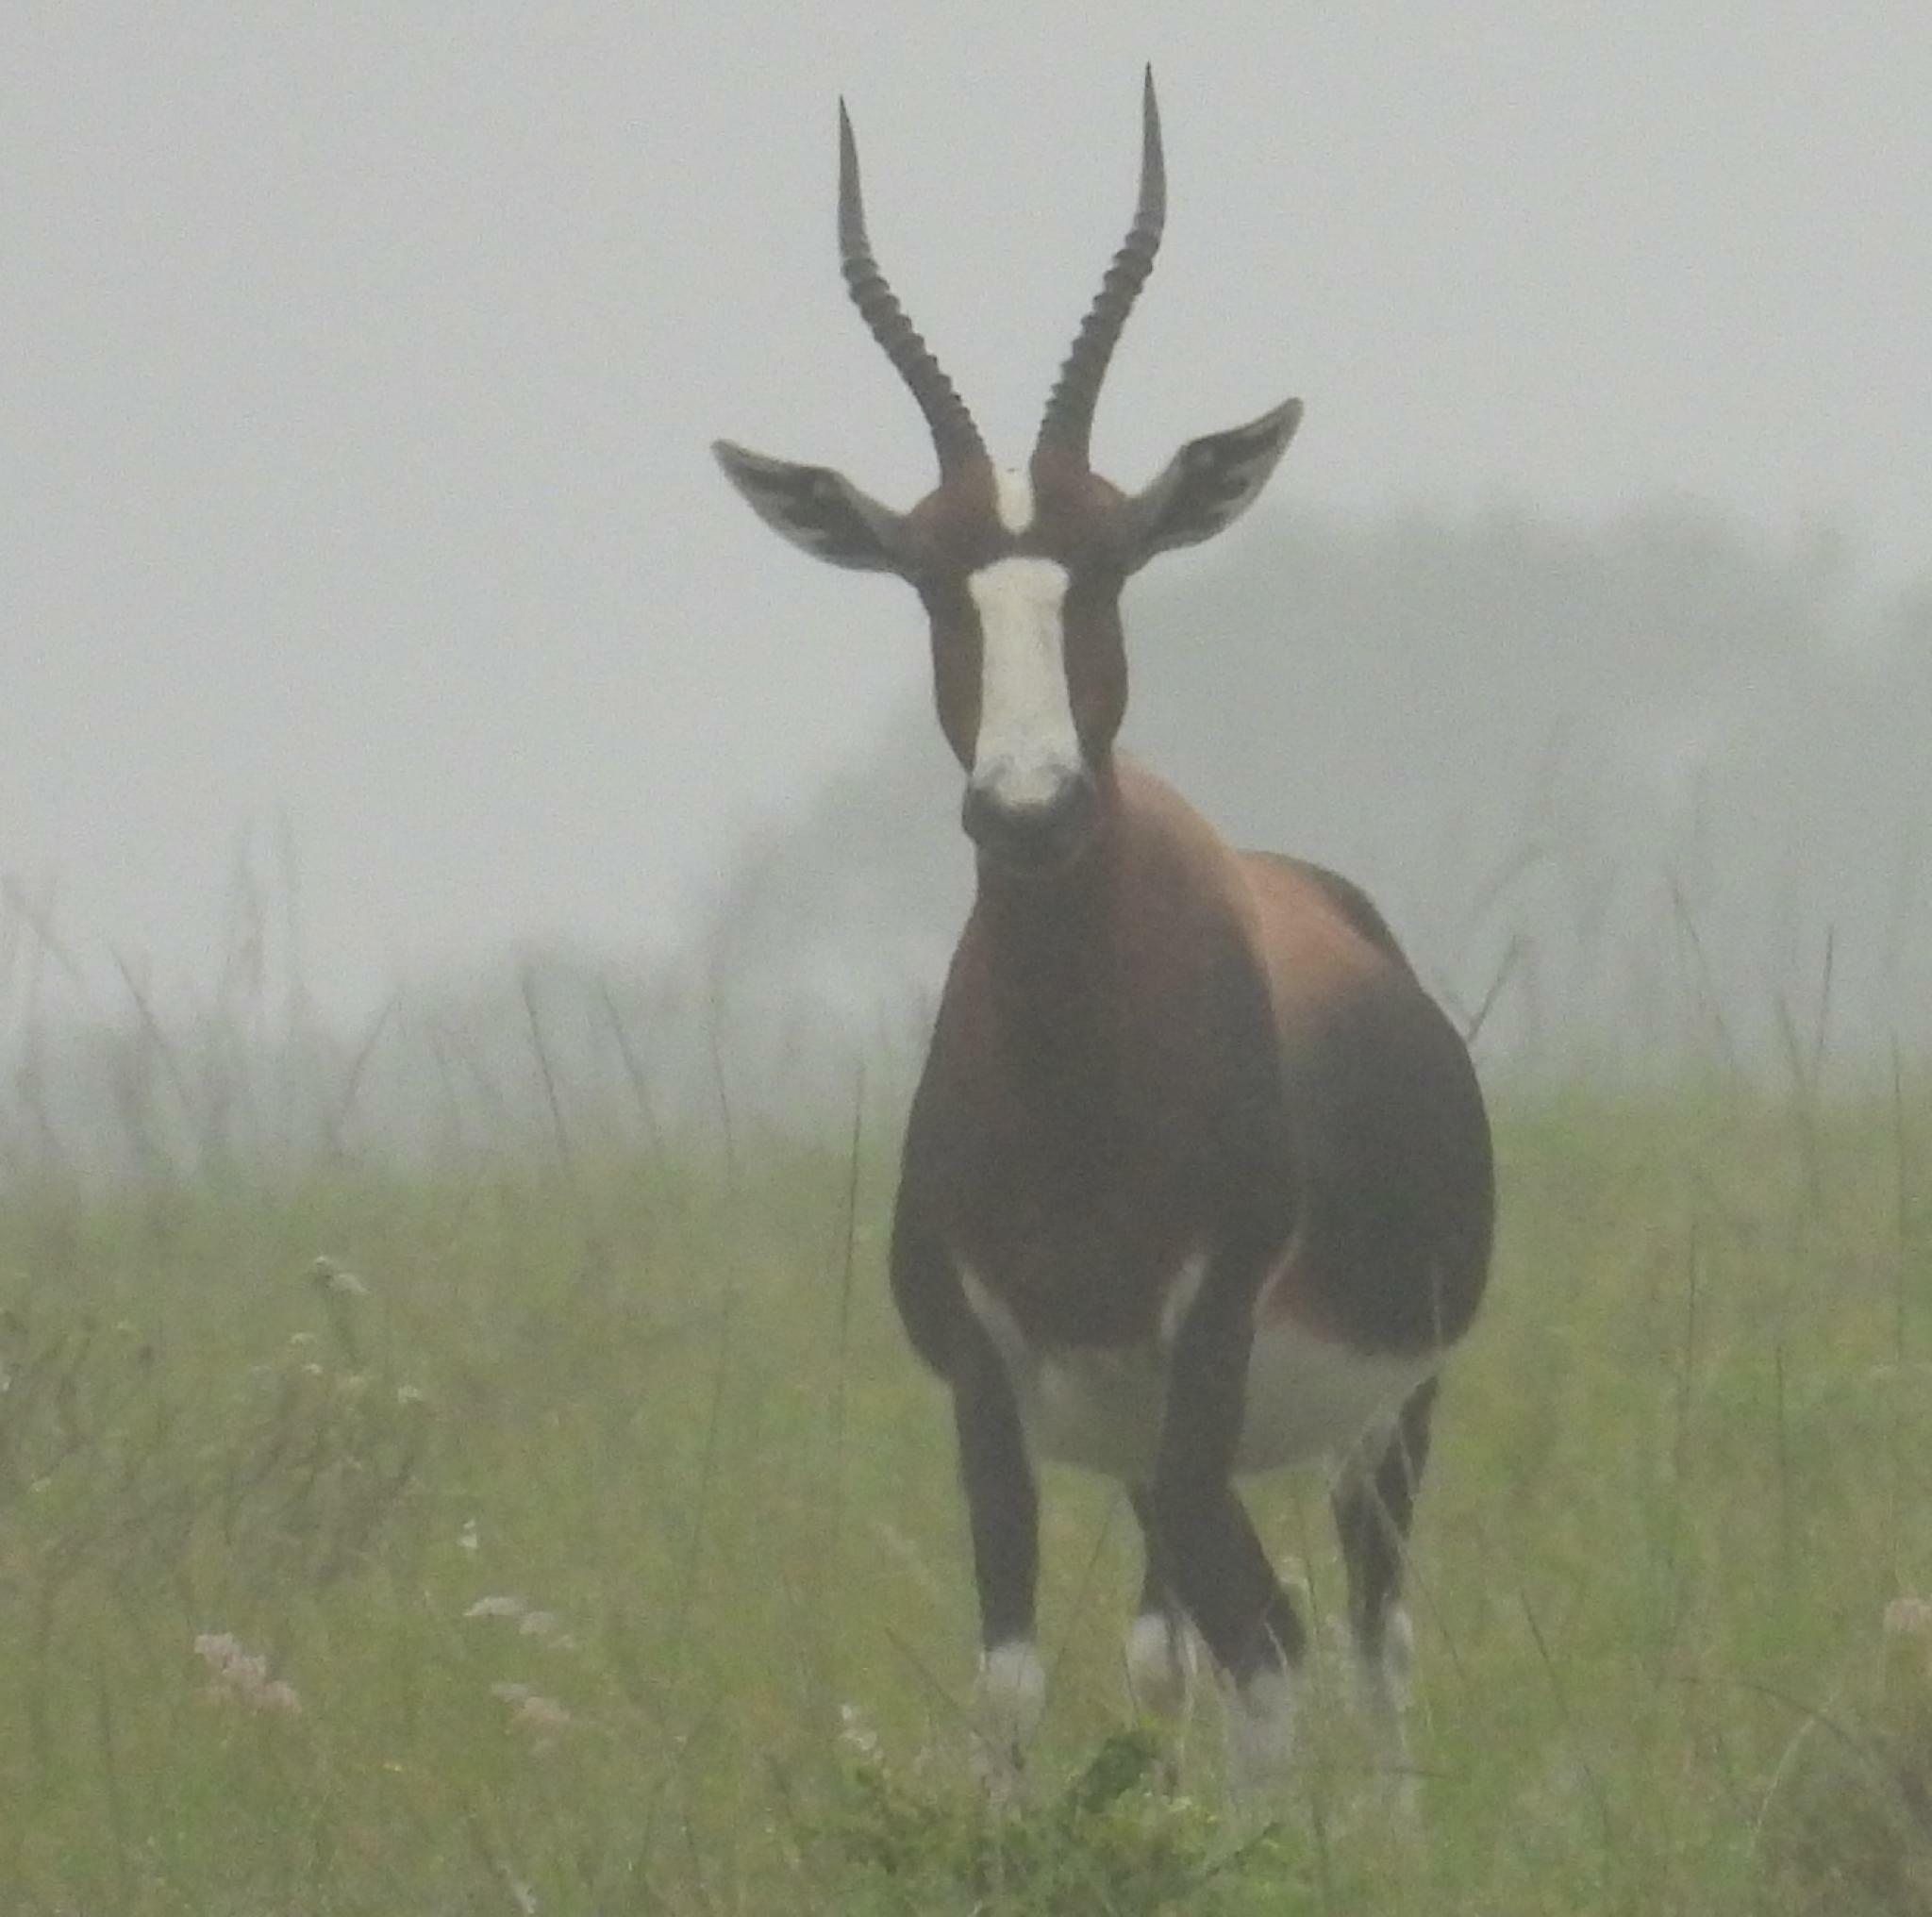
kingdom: Animalia
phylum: Chordata
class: Mammalia
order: Artiodactyla
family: Bovidae
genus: Damaliscus
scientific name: Damaliscus pygargus
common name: Bontebok
